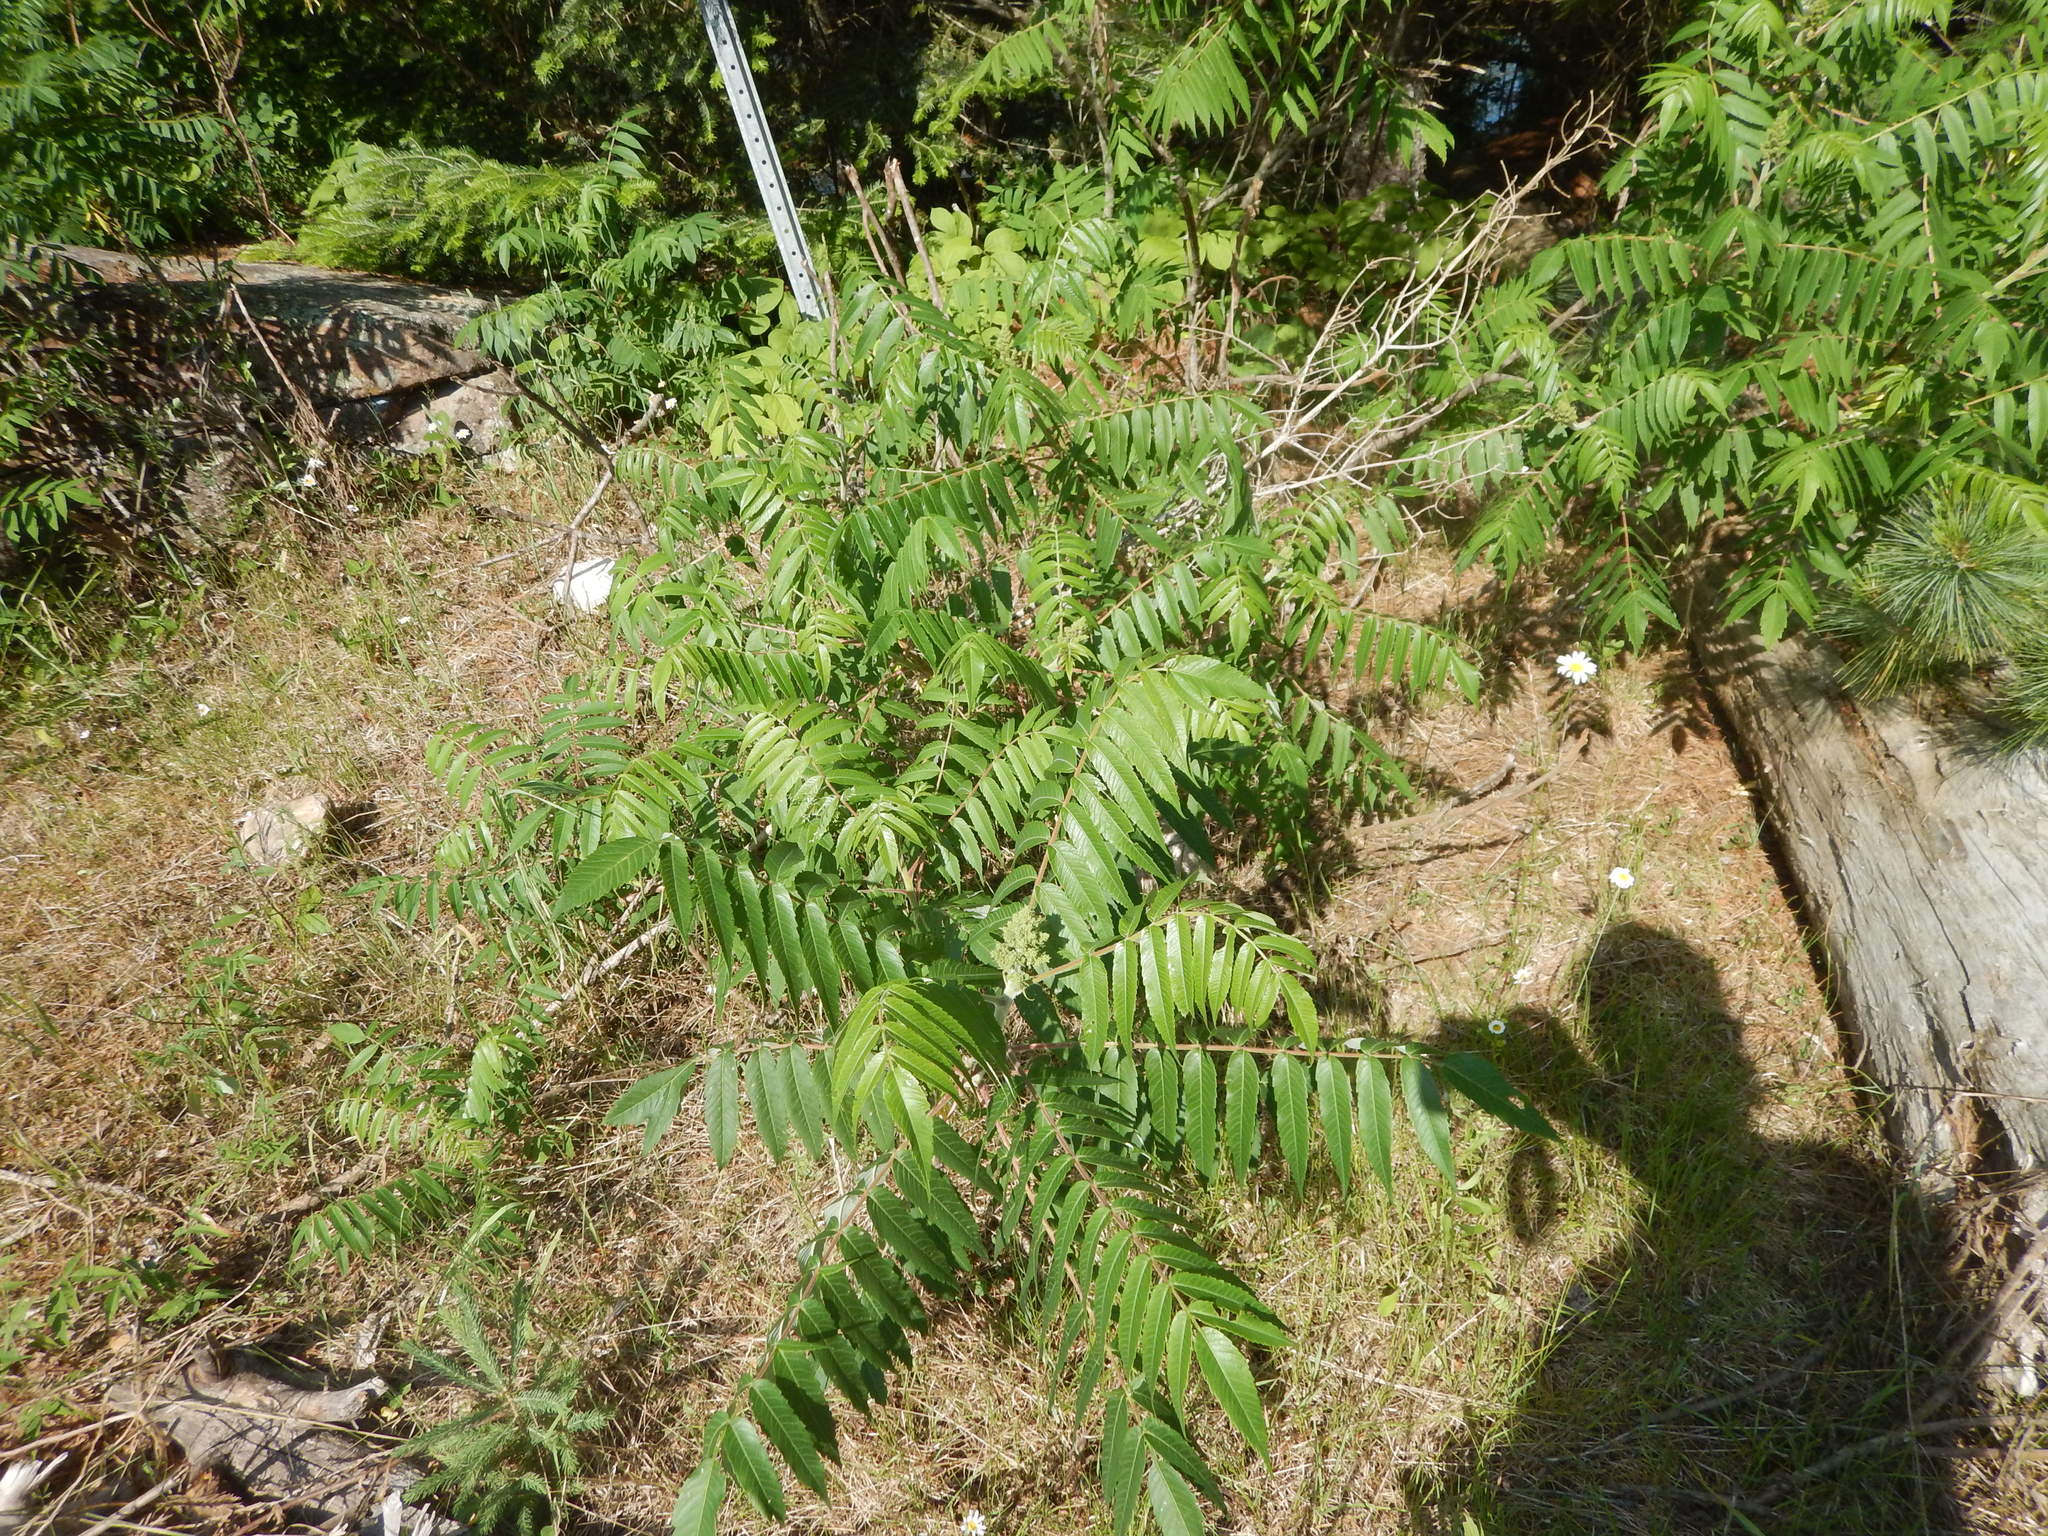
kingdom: Plantae
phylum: Tracheophyta
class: Magnoliopsida
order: Sapindales
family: Anacardiaceae
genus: Rhus
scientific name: Rhus typhina
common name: Staghorn sumac
